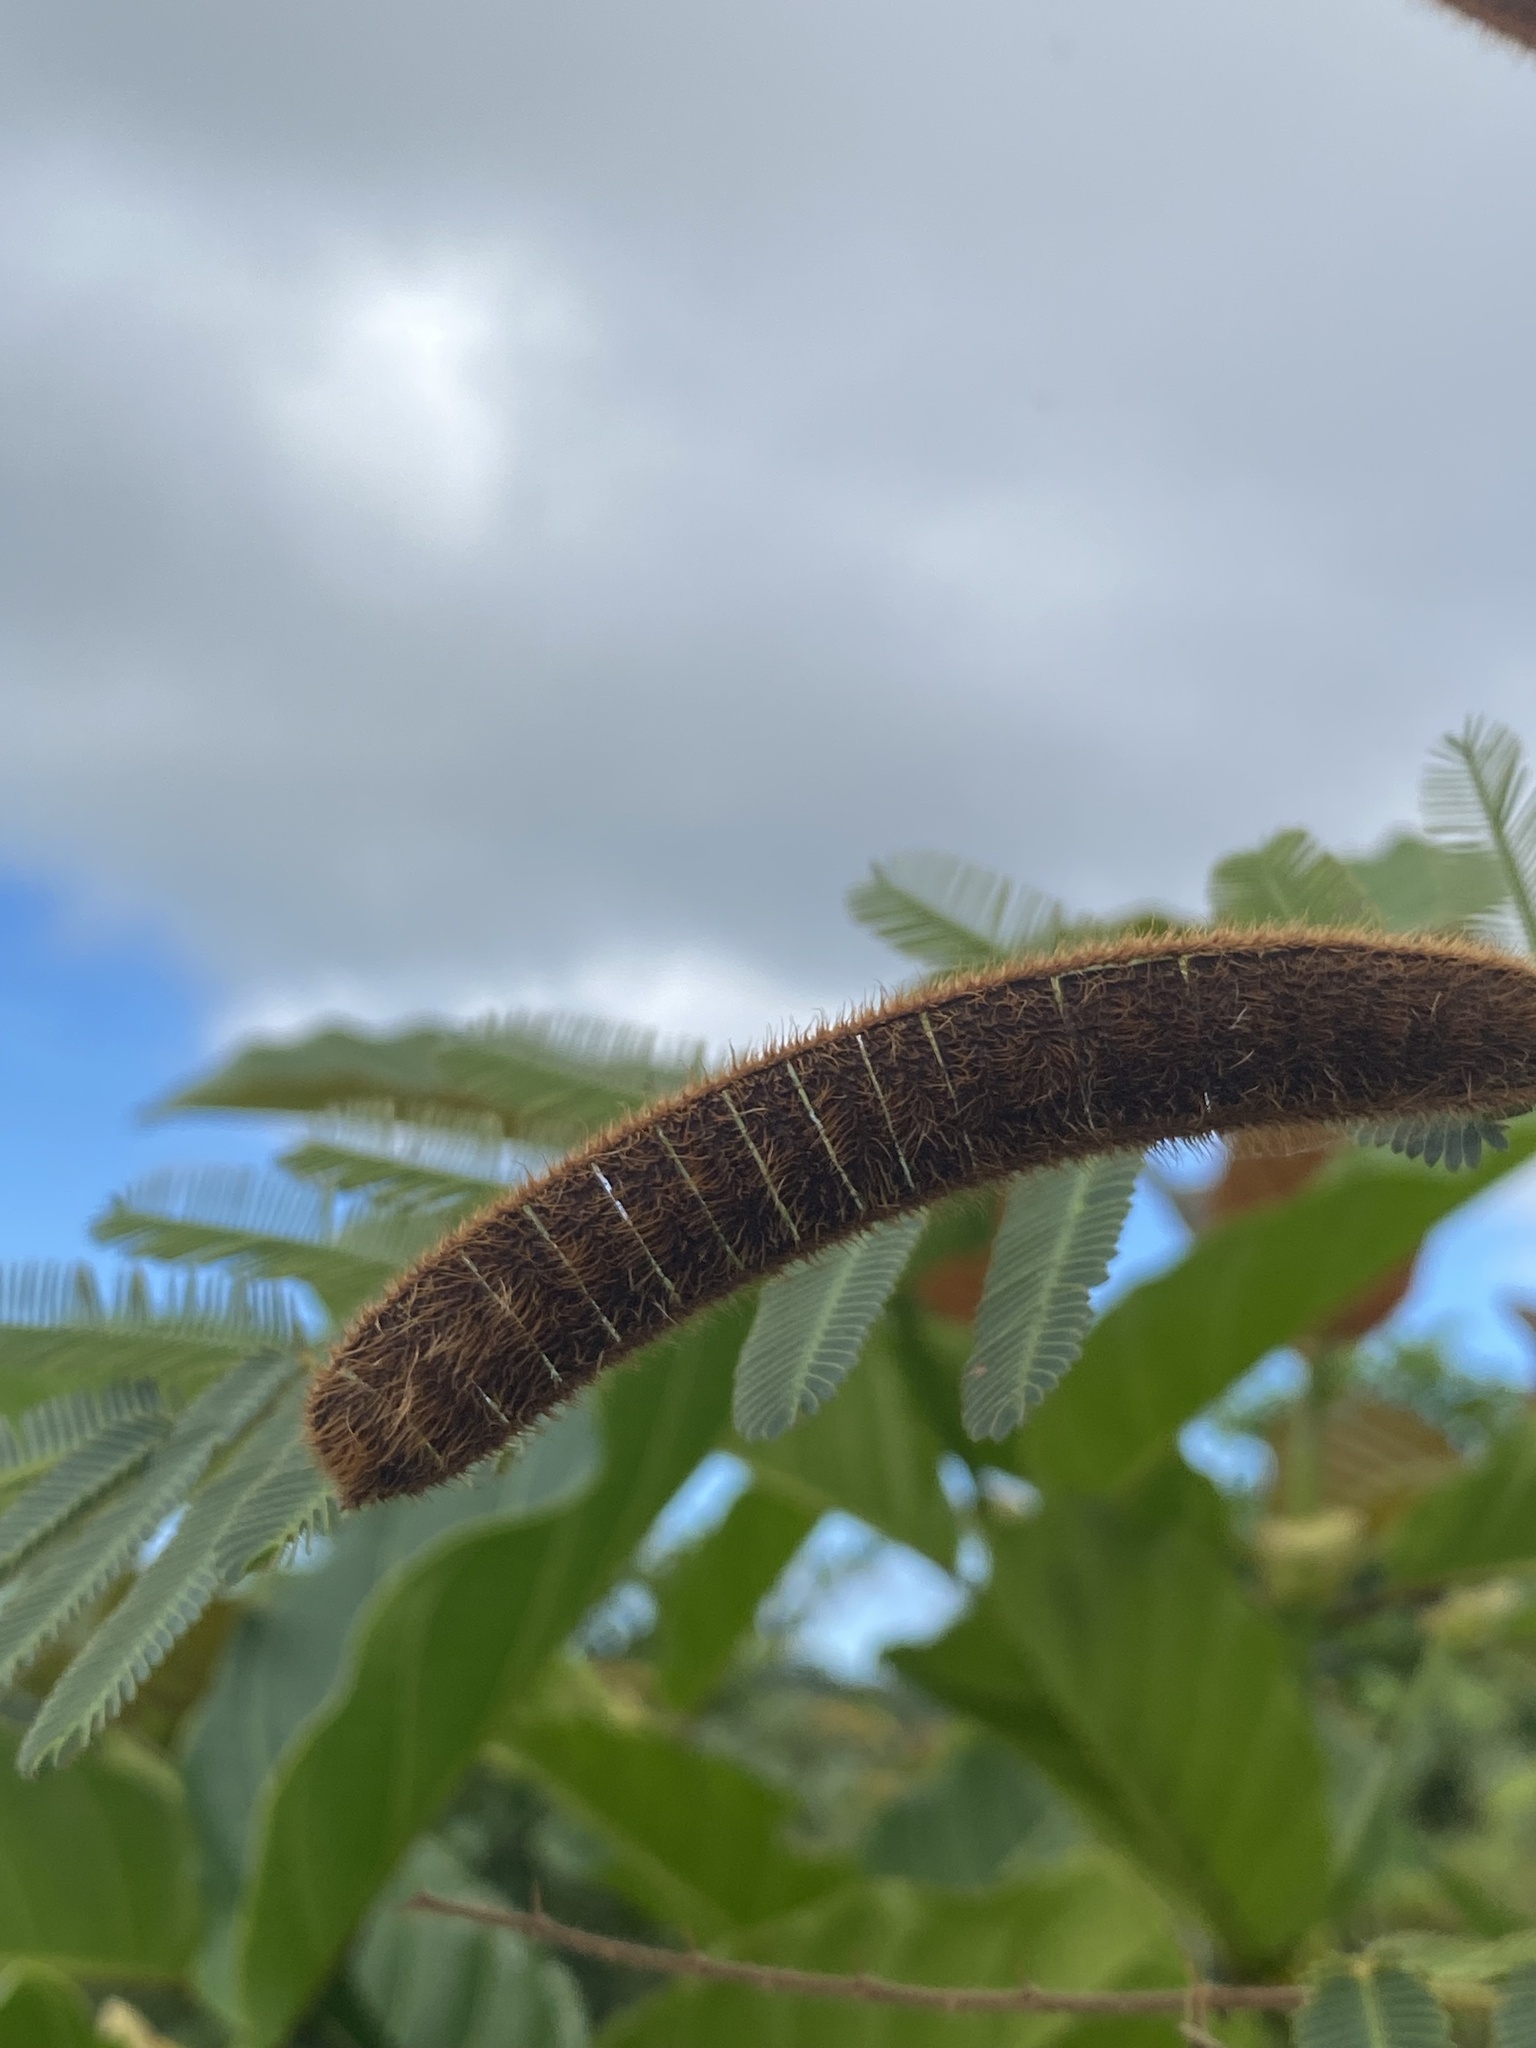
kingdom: Plantae
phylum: Tracheophyta
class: Magnoliopsida
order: Fabales
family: Fabaceae
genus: Mimosa
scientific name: Mimosa pigra
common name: Black mimosa
